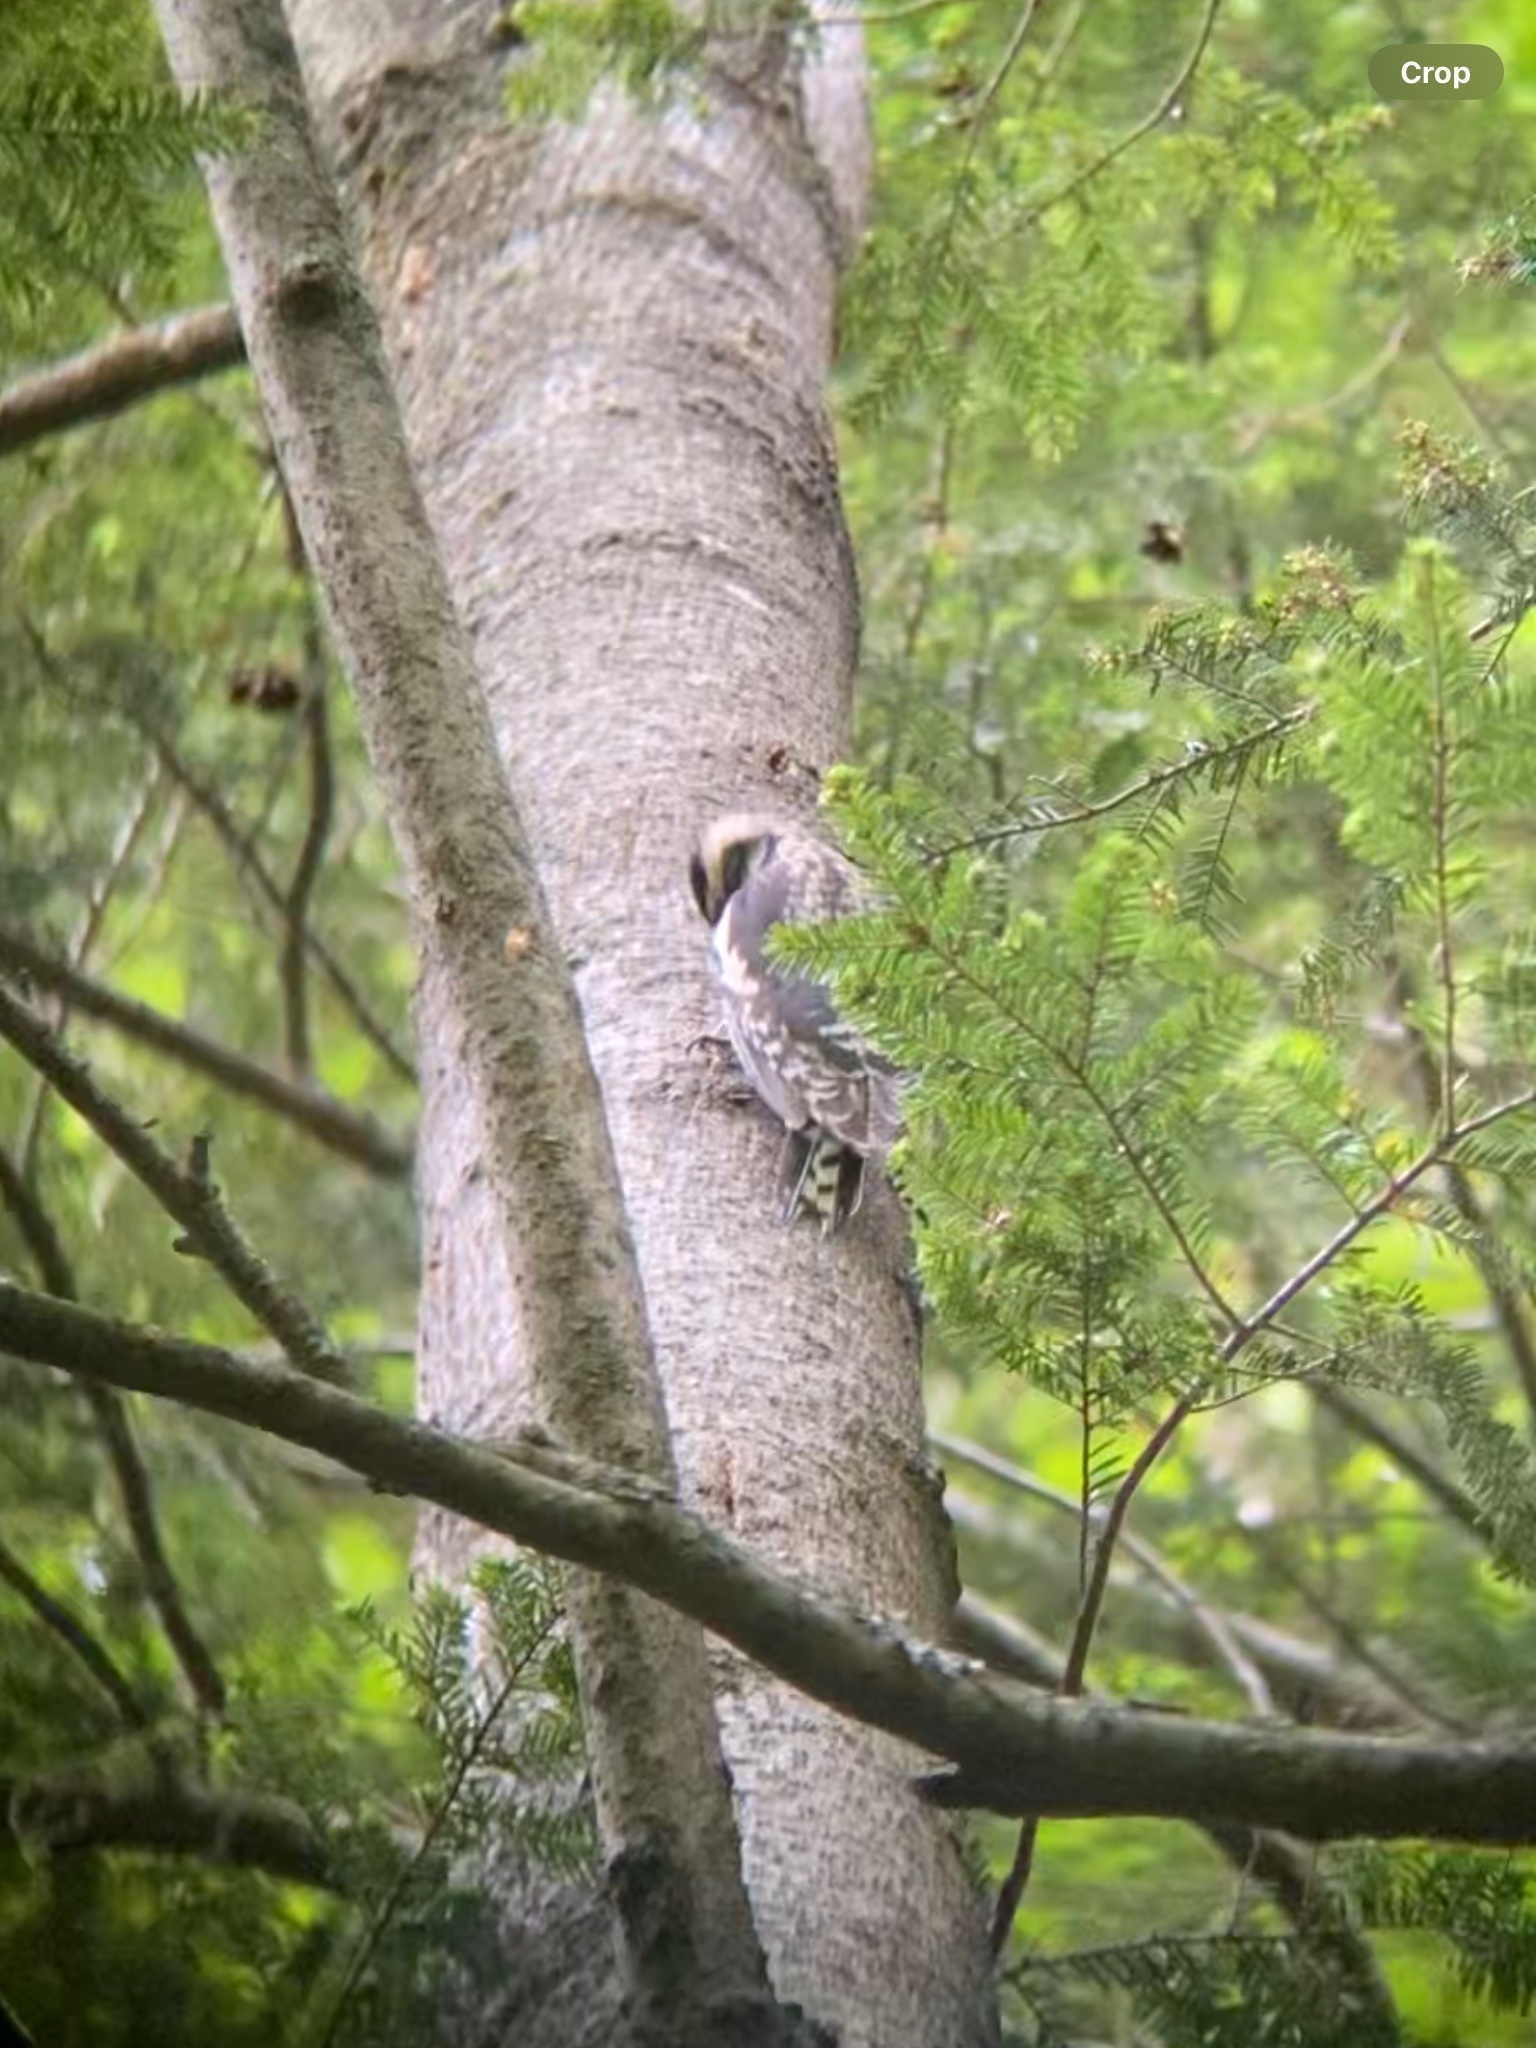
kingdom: Animalia
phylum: Chordata
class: Aves
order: Piciformes
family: Picidae
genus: Sphyrapicus
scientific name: Sphyrapicus varius
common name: Yellow-bellied sapsucker
